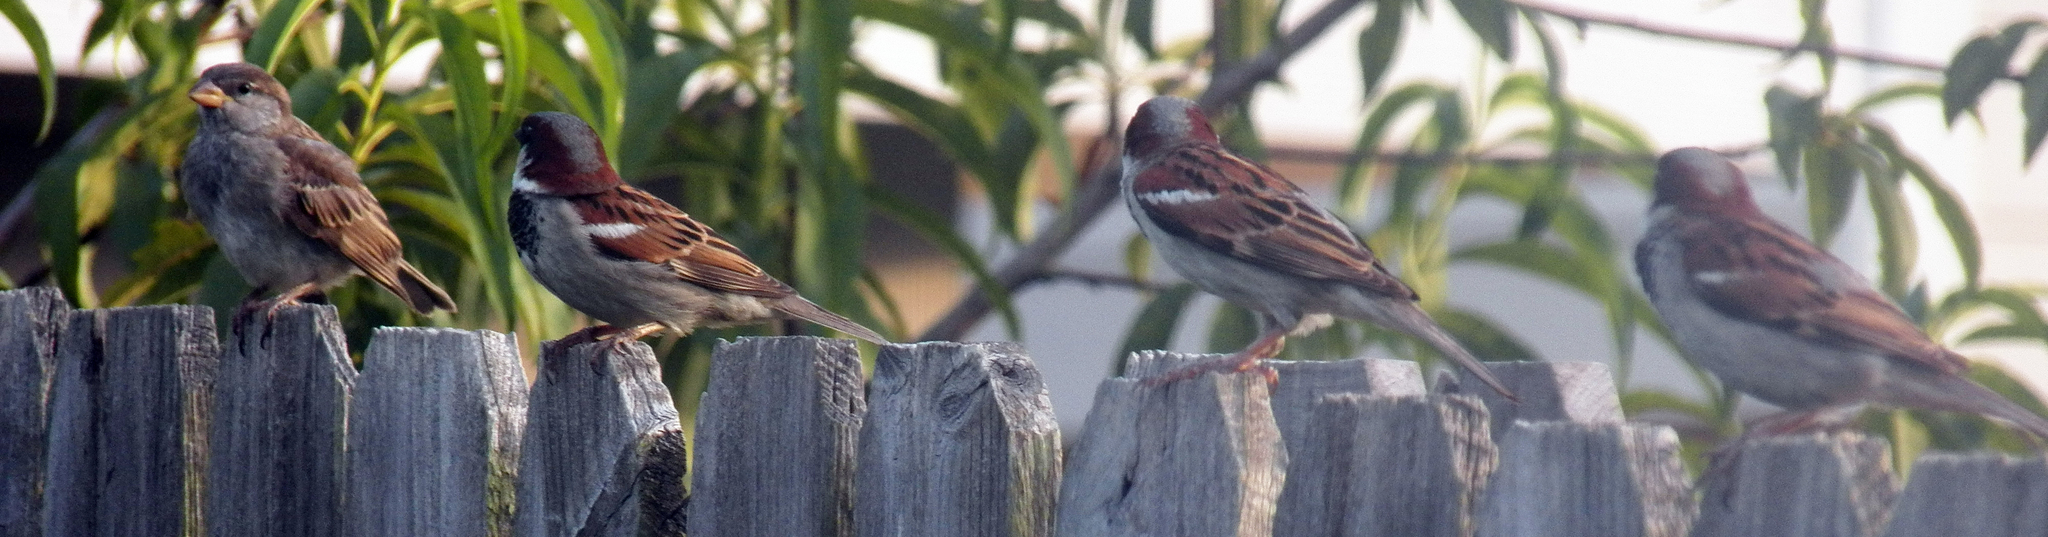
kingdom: Animalia
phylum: Chordata
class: Aves
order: Passeriformes
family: Passeridae
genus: Passer
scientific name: Passer domesticus
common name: House sparrow
